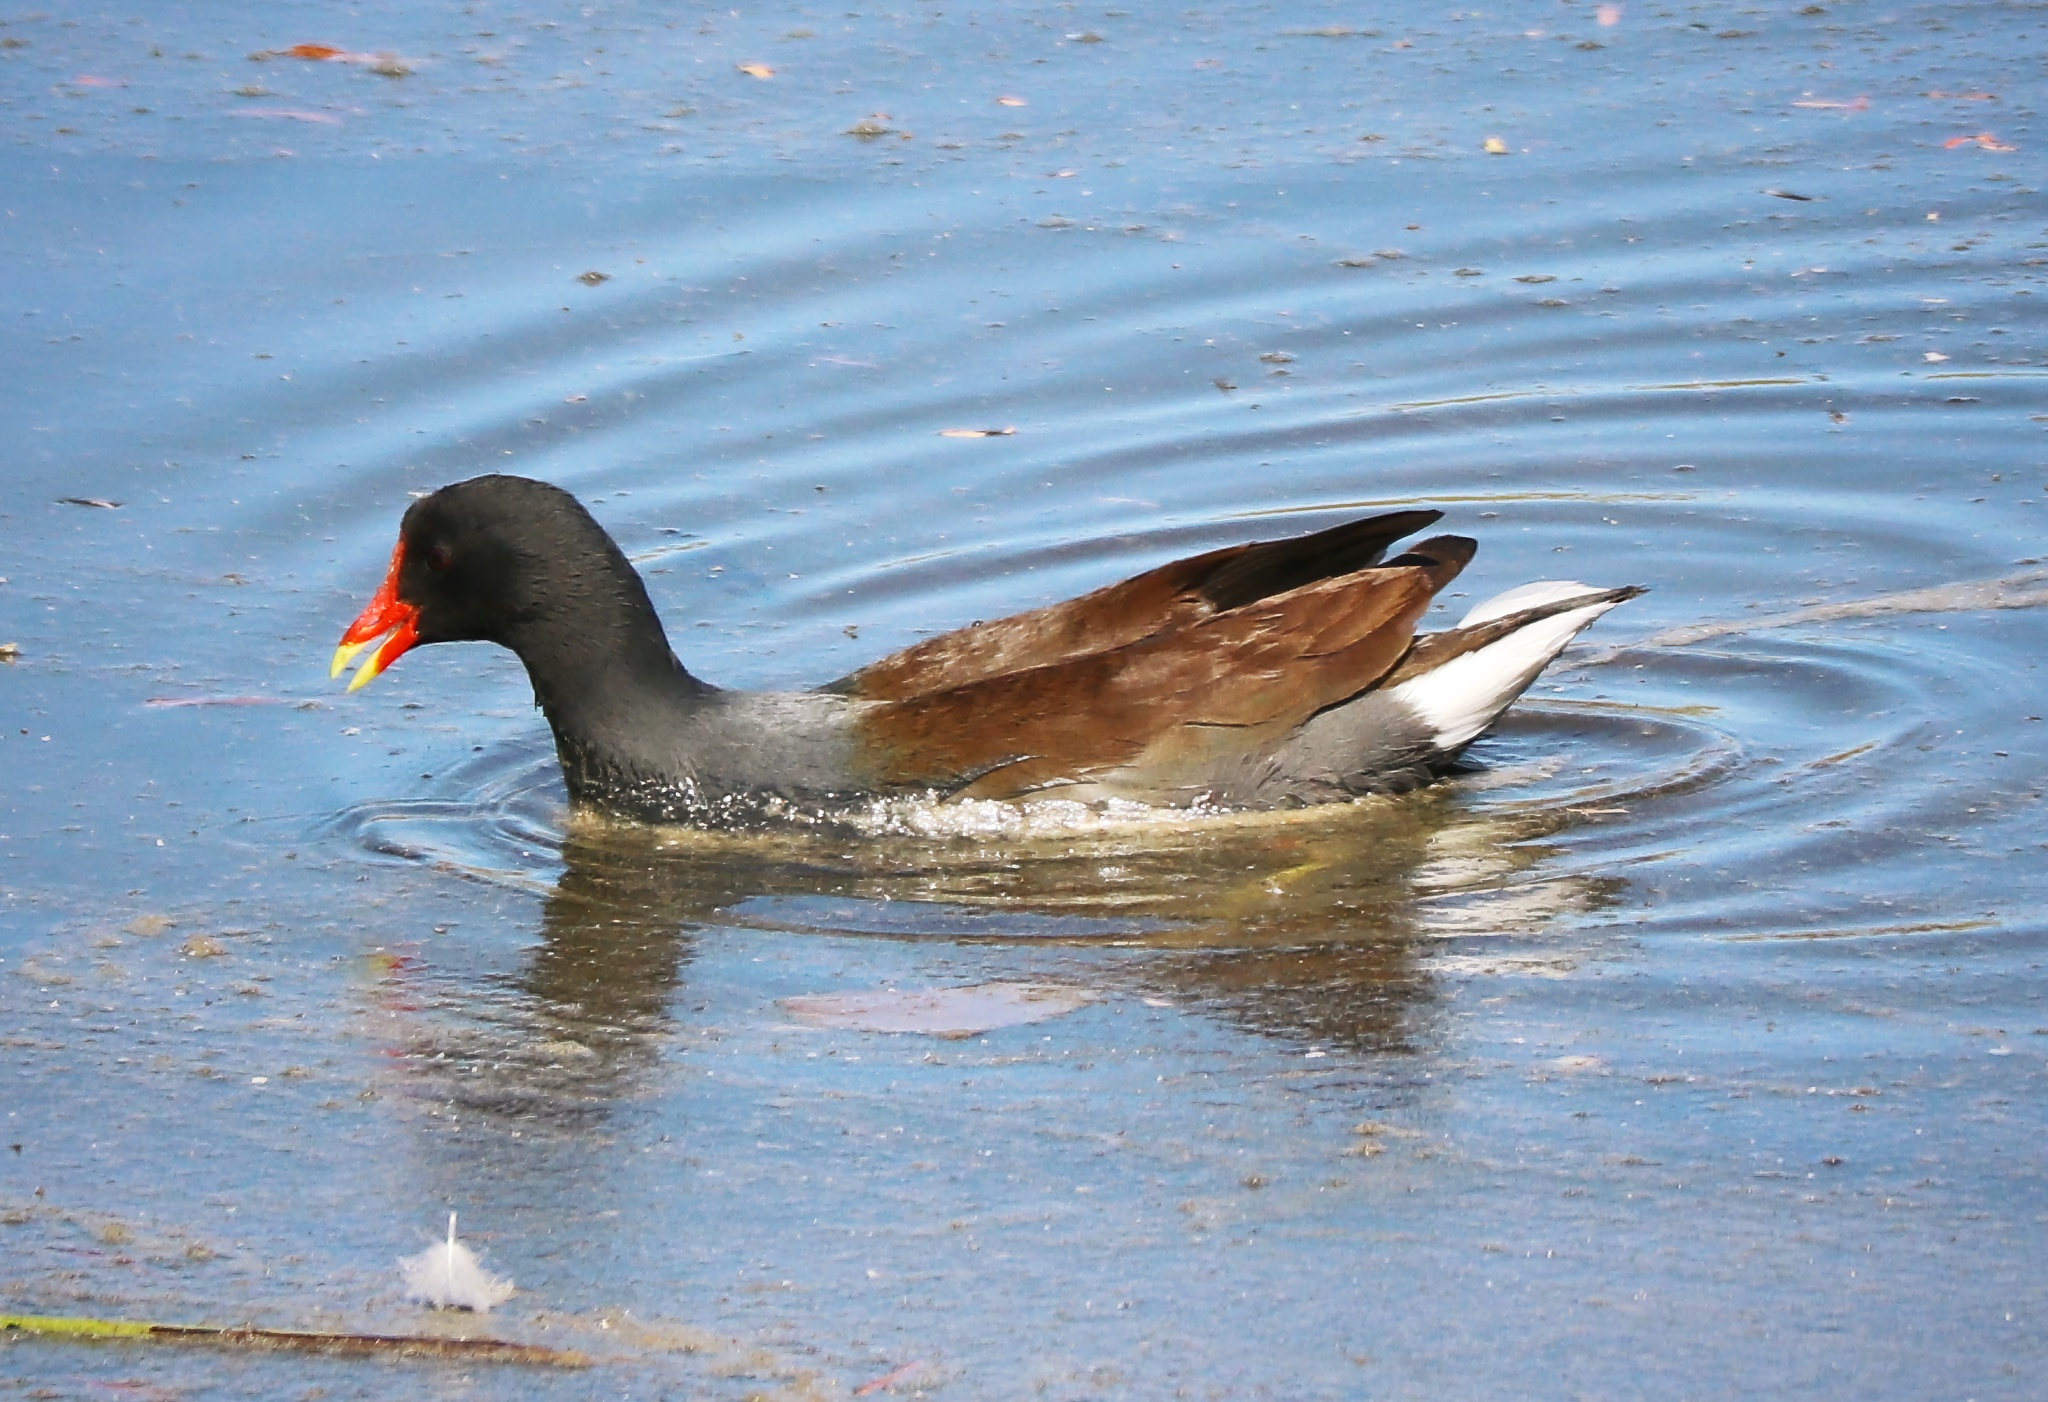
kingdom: Animalia
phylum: Chordata
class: Aves
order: Gruiformes
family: Rallidae
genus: Gallinula
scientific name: Gallinula chloropus
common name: Common moorhen
